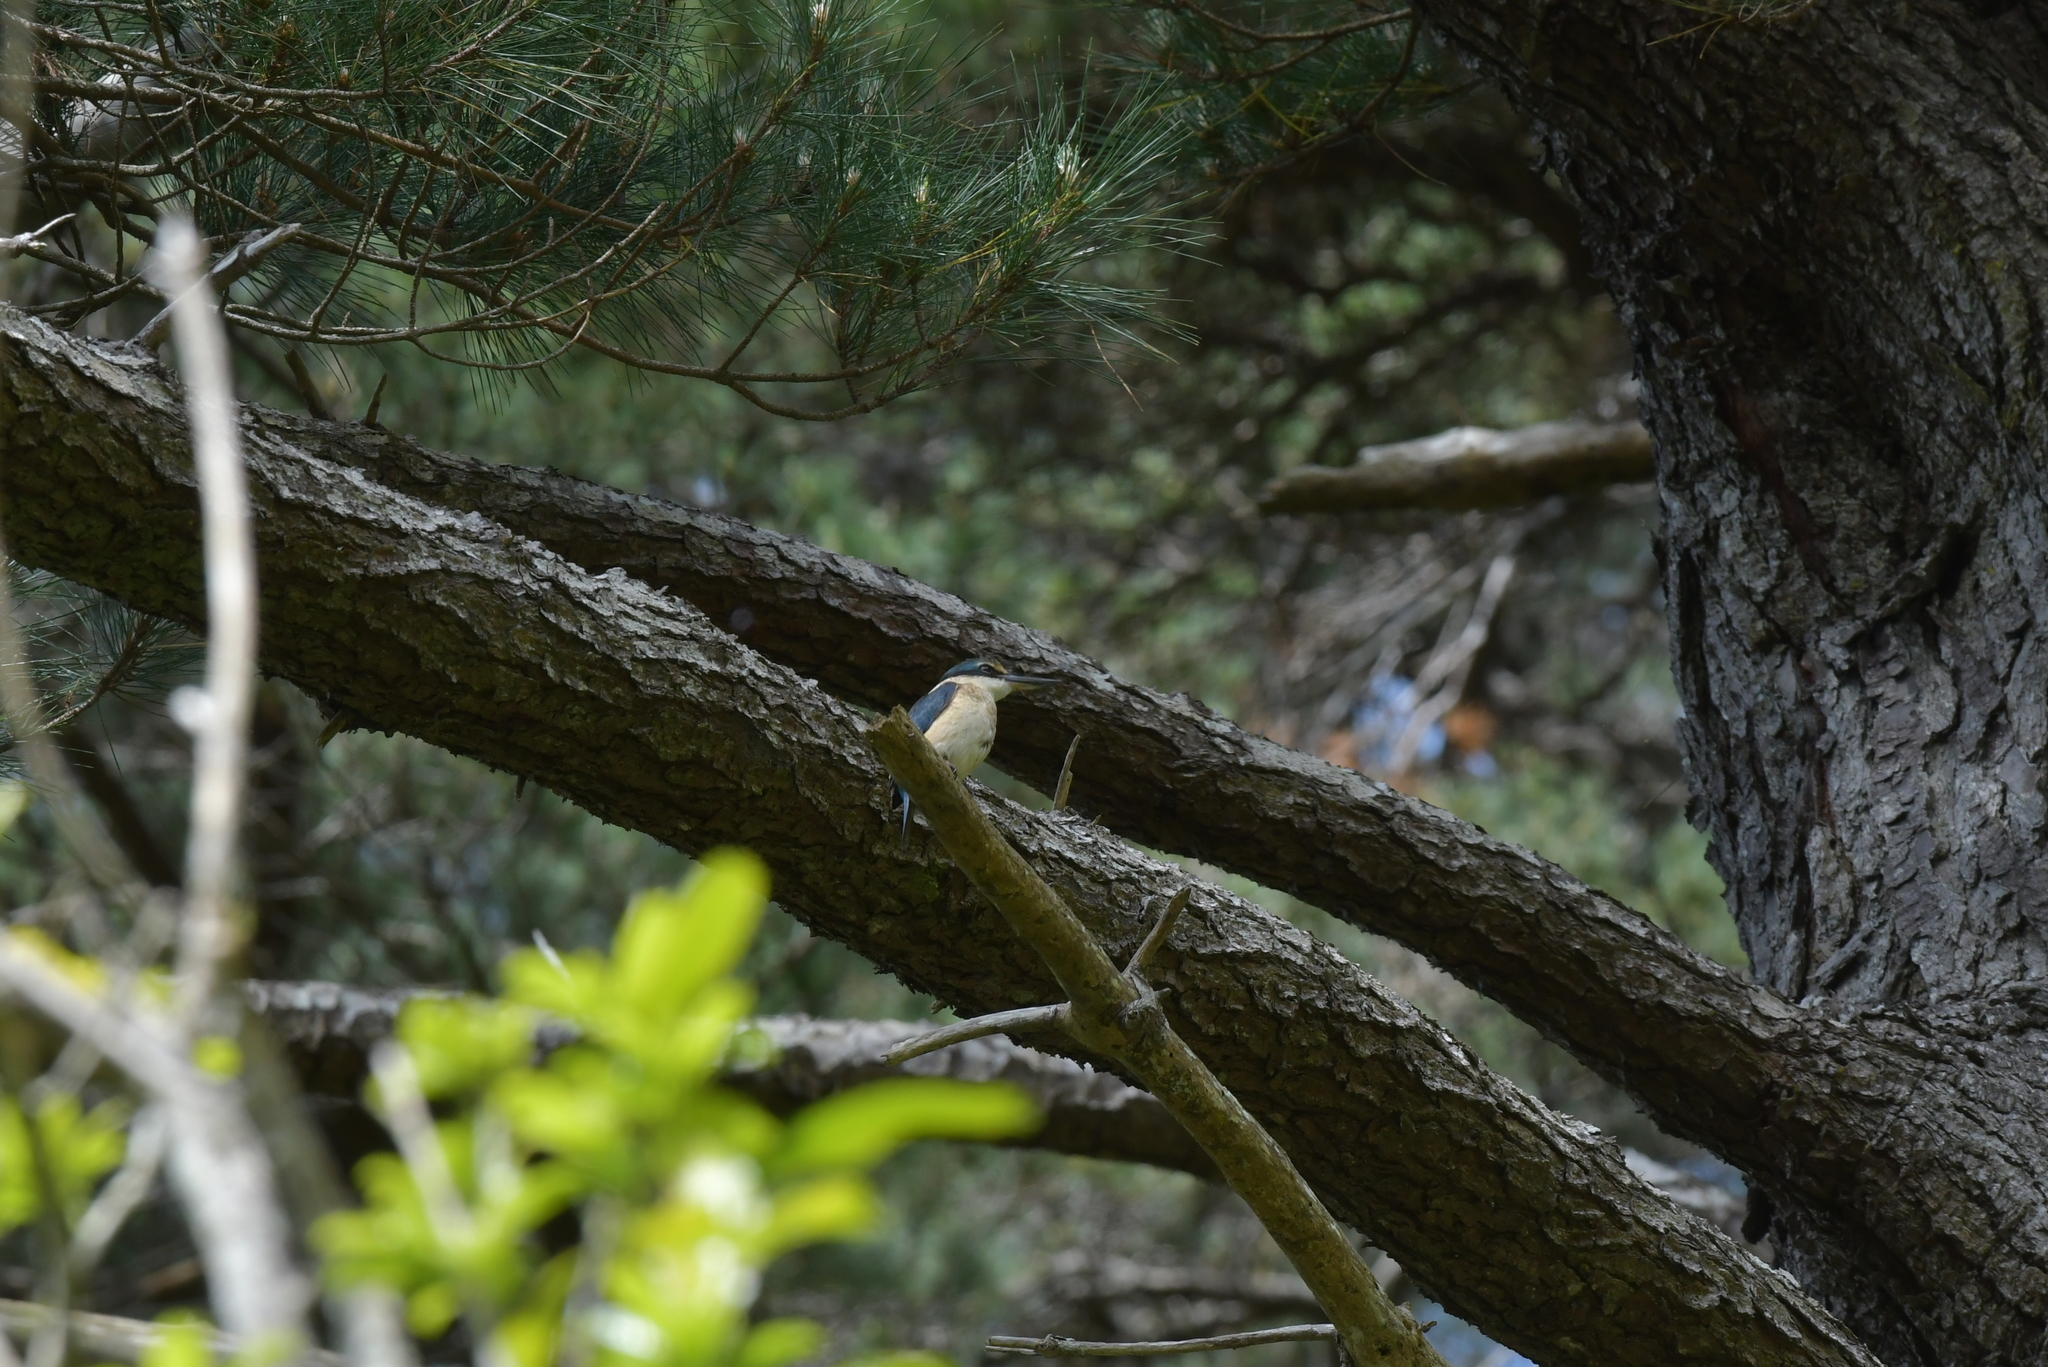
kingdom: Animalia
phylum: Chordata
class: Aves
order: Coraciiformes
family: Alcedinidae
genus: Todiramphus
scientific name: Todiramphus sanctus
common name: Sacred kingfisher
